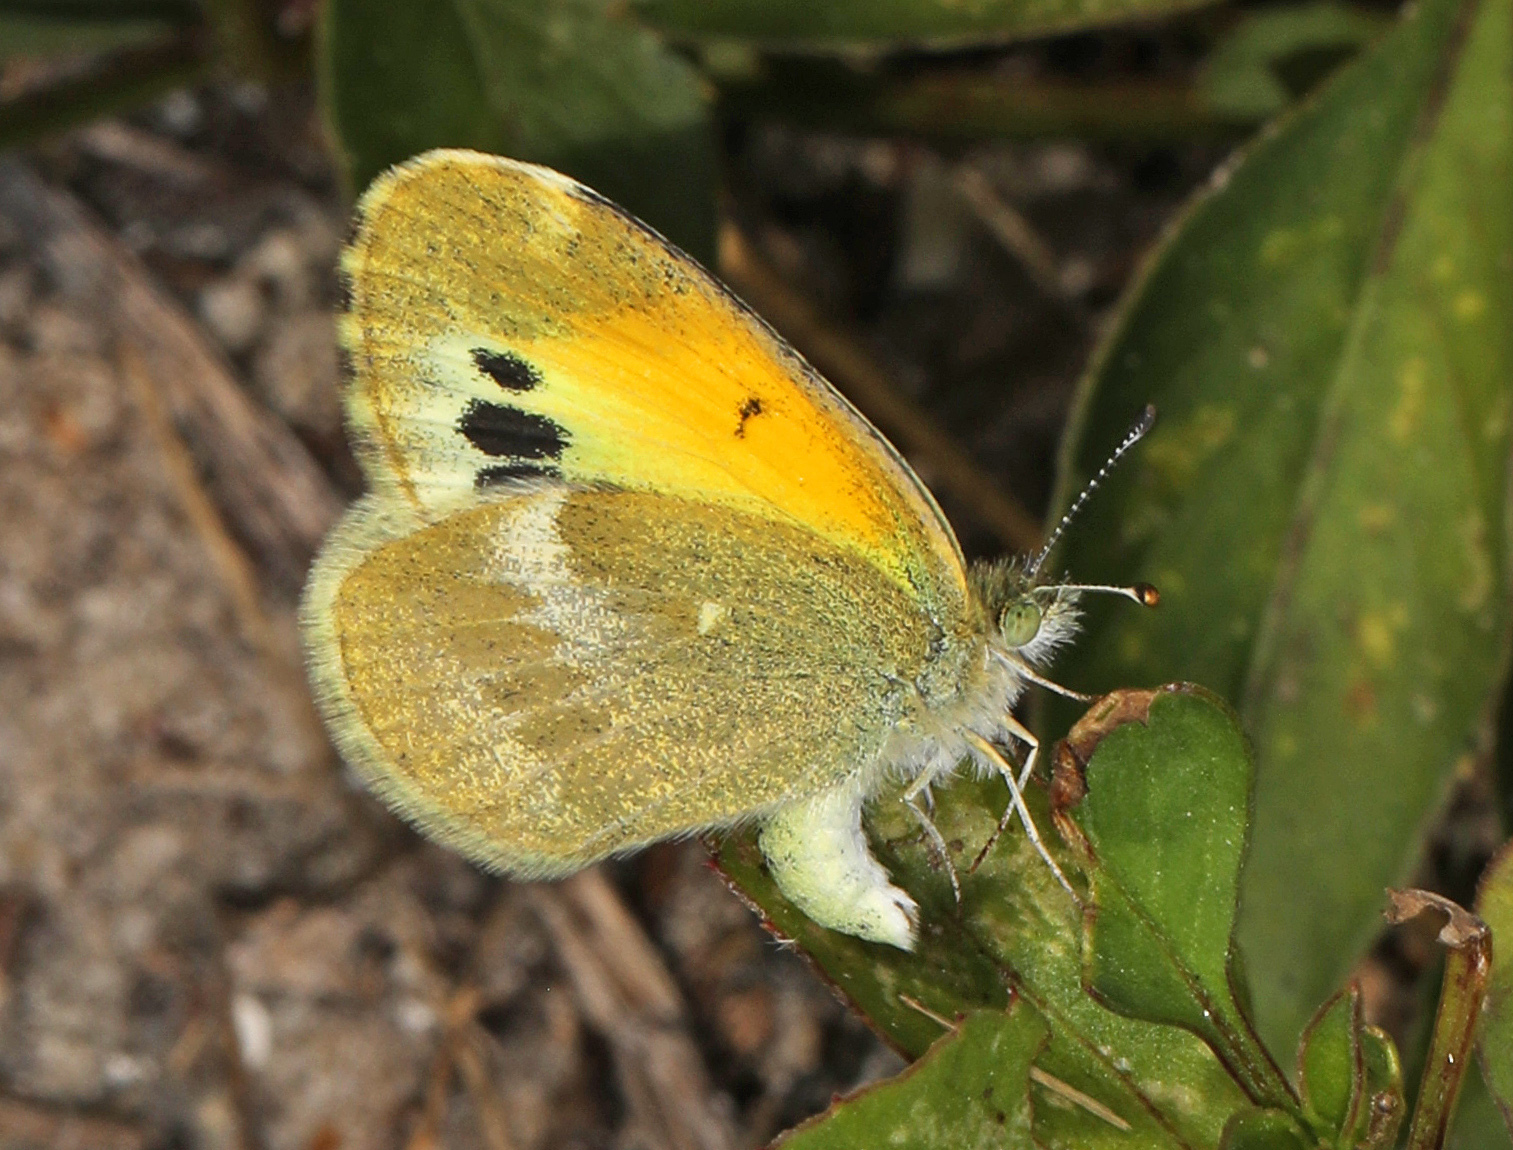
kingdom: Animalia
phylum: Arthropoda
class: Insecta
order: Lepidoptera
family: Pieridae
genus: Nathalis
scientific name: Nathalis iole
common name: Dainty sulphur
